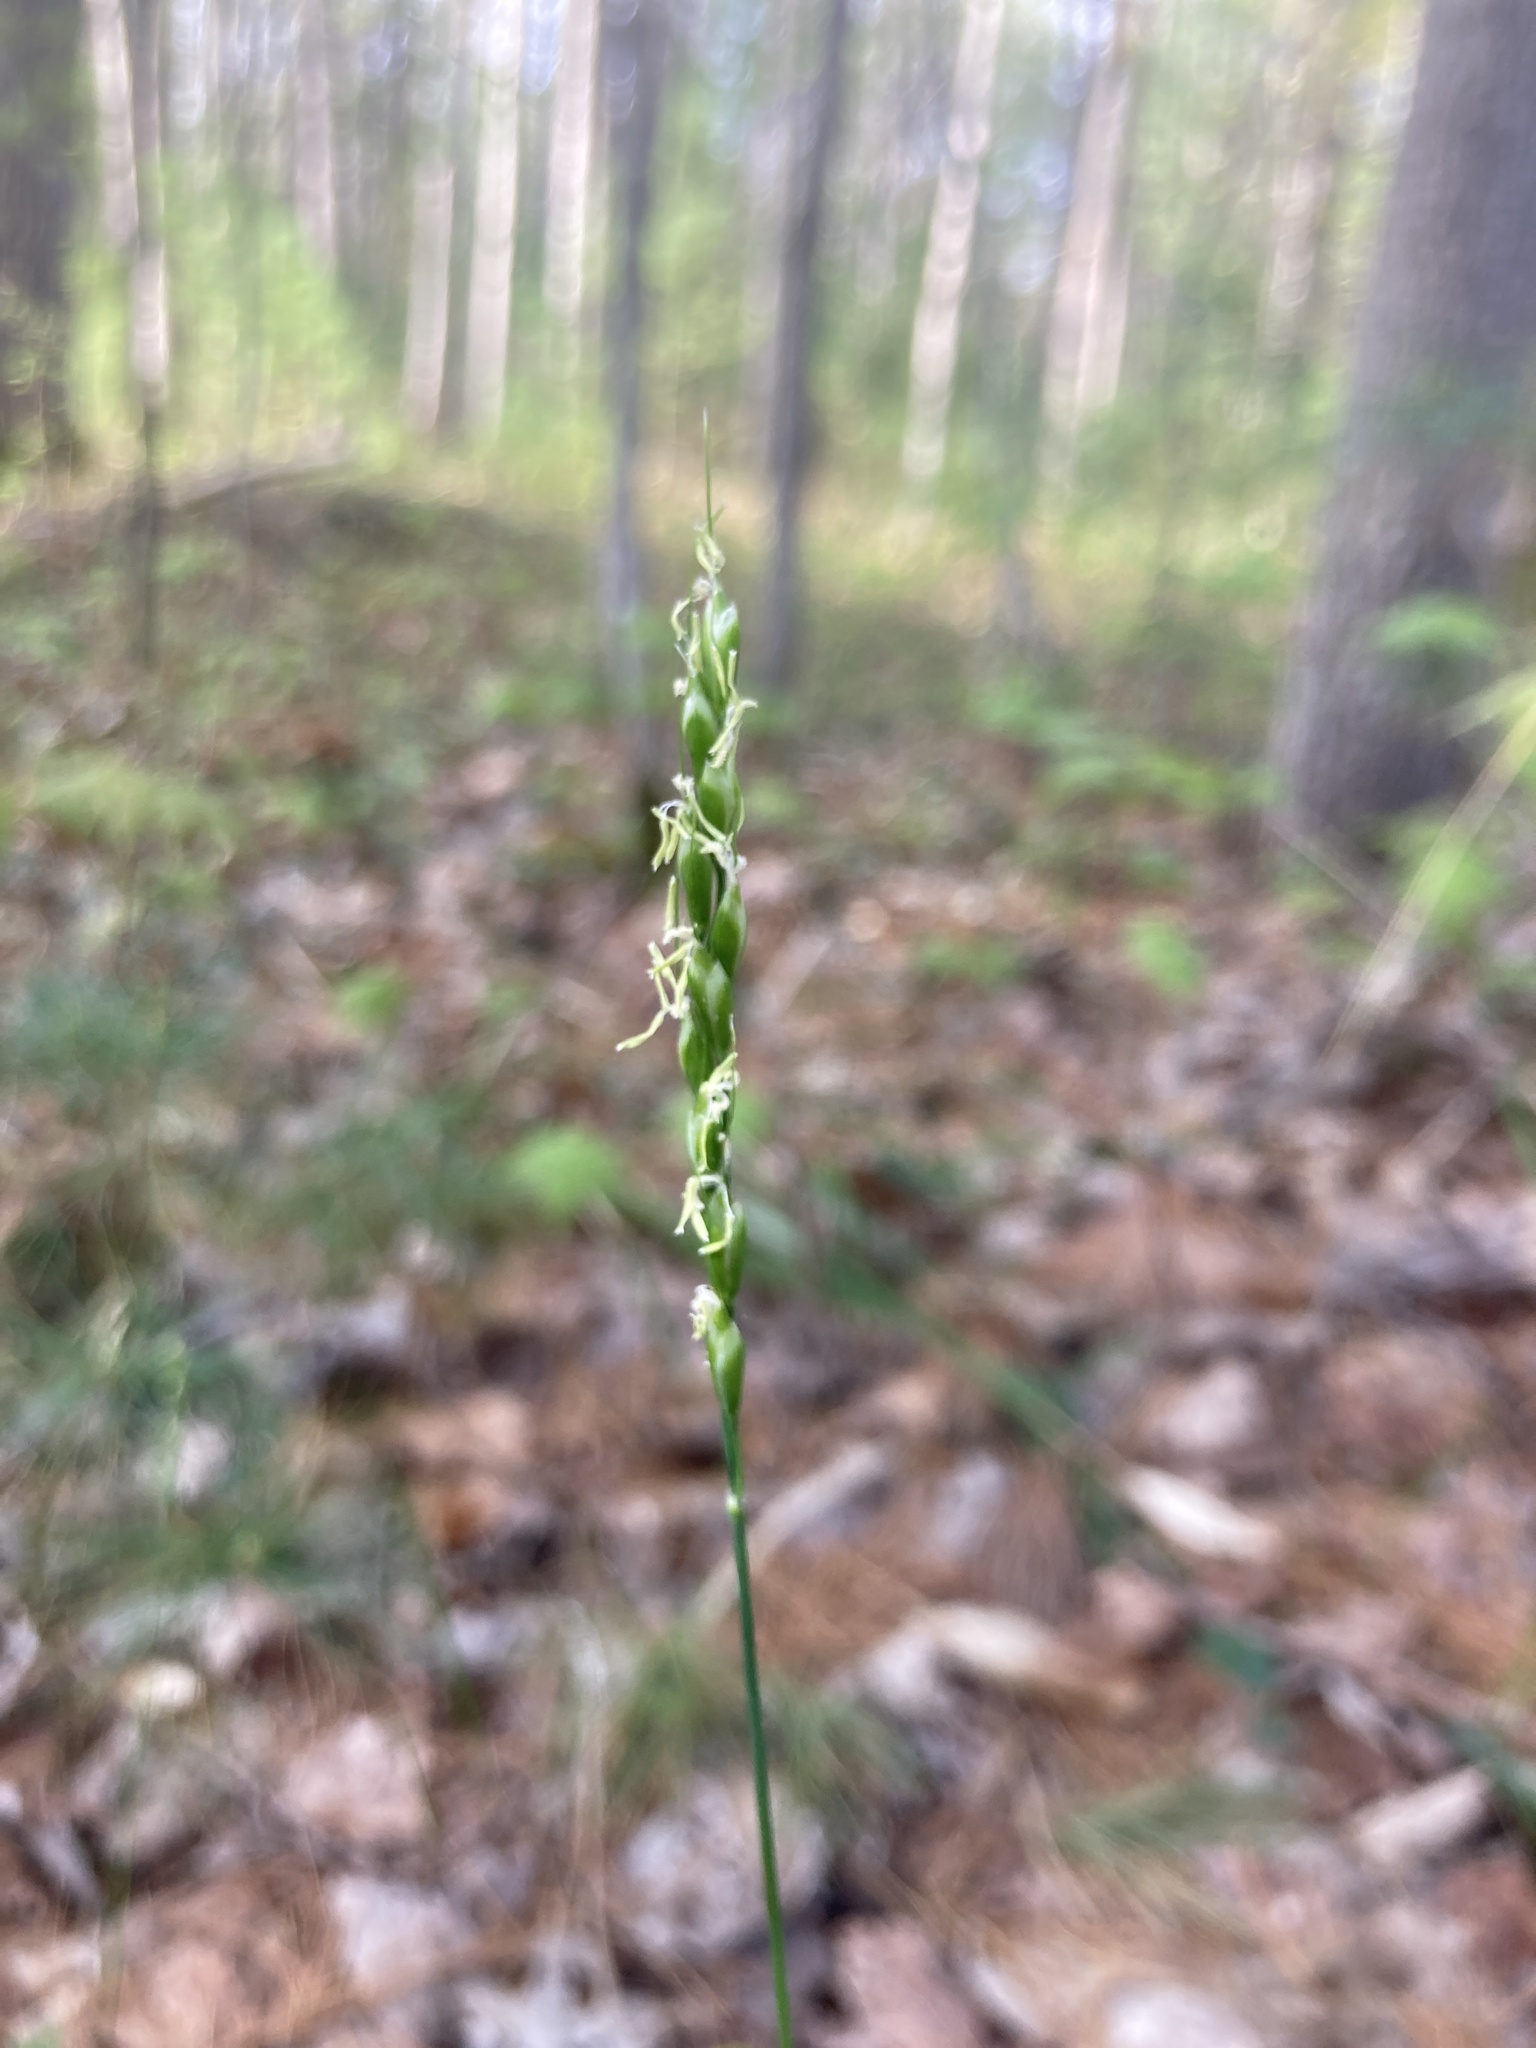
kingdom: Plantae
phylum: Tracheophyta
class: Liliopsida
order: Poales
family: Poaceae
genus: Oryzopsis
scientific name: Oryzopsis asperifolia
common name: Rough-leaved mountain rice
